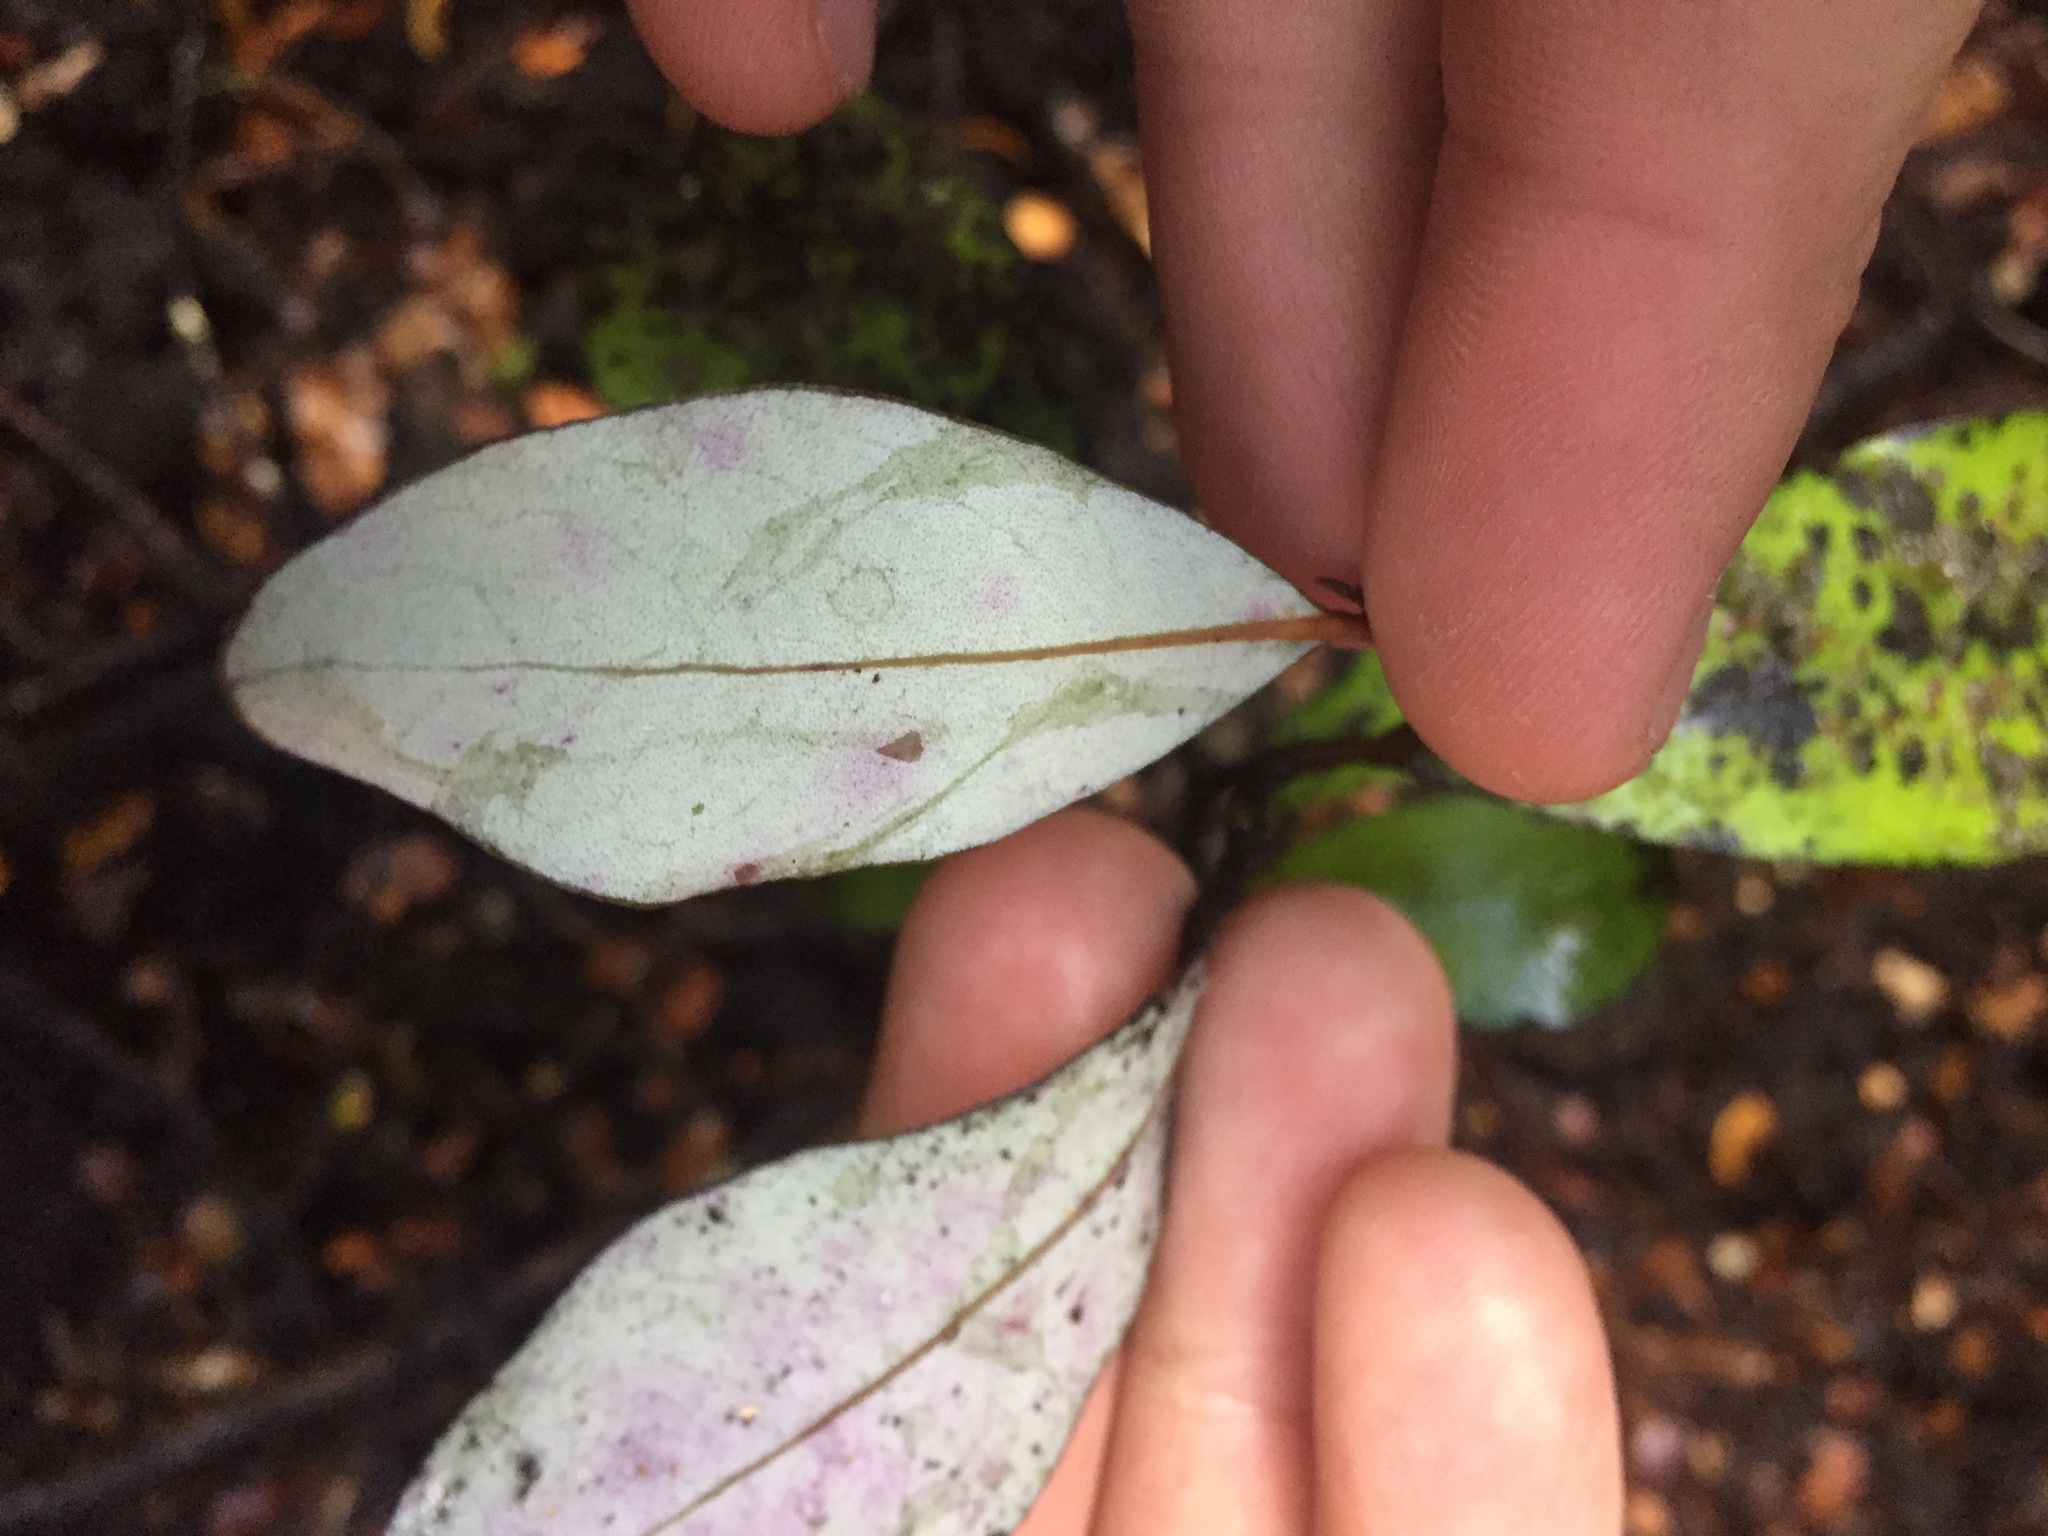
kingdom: Plantae
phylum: Tracheophyta
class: Magnoliopsida
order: Canellales
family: Winteraceae
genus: Pseudowintera
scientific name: Pseudowintera colorata
